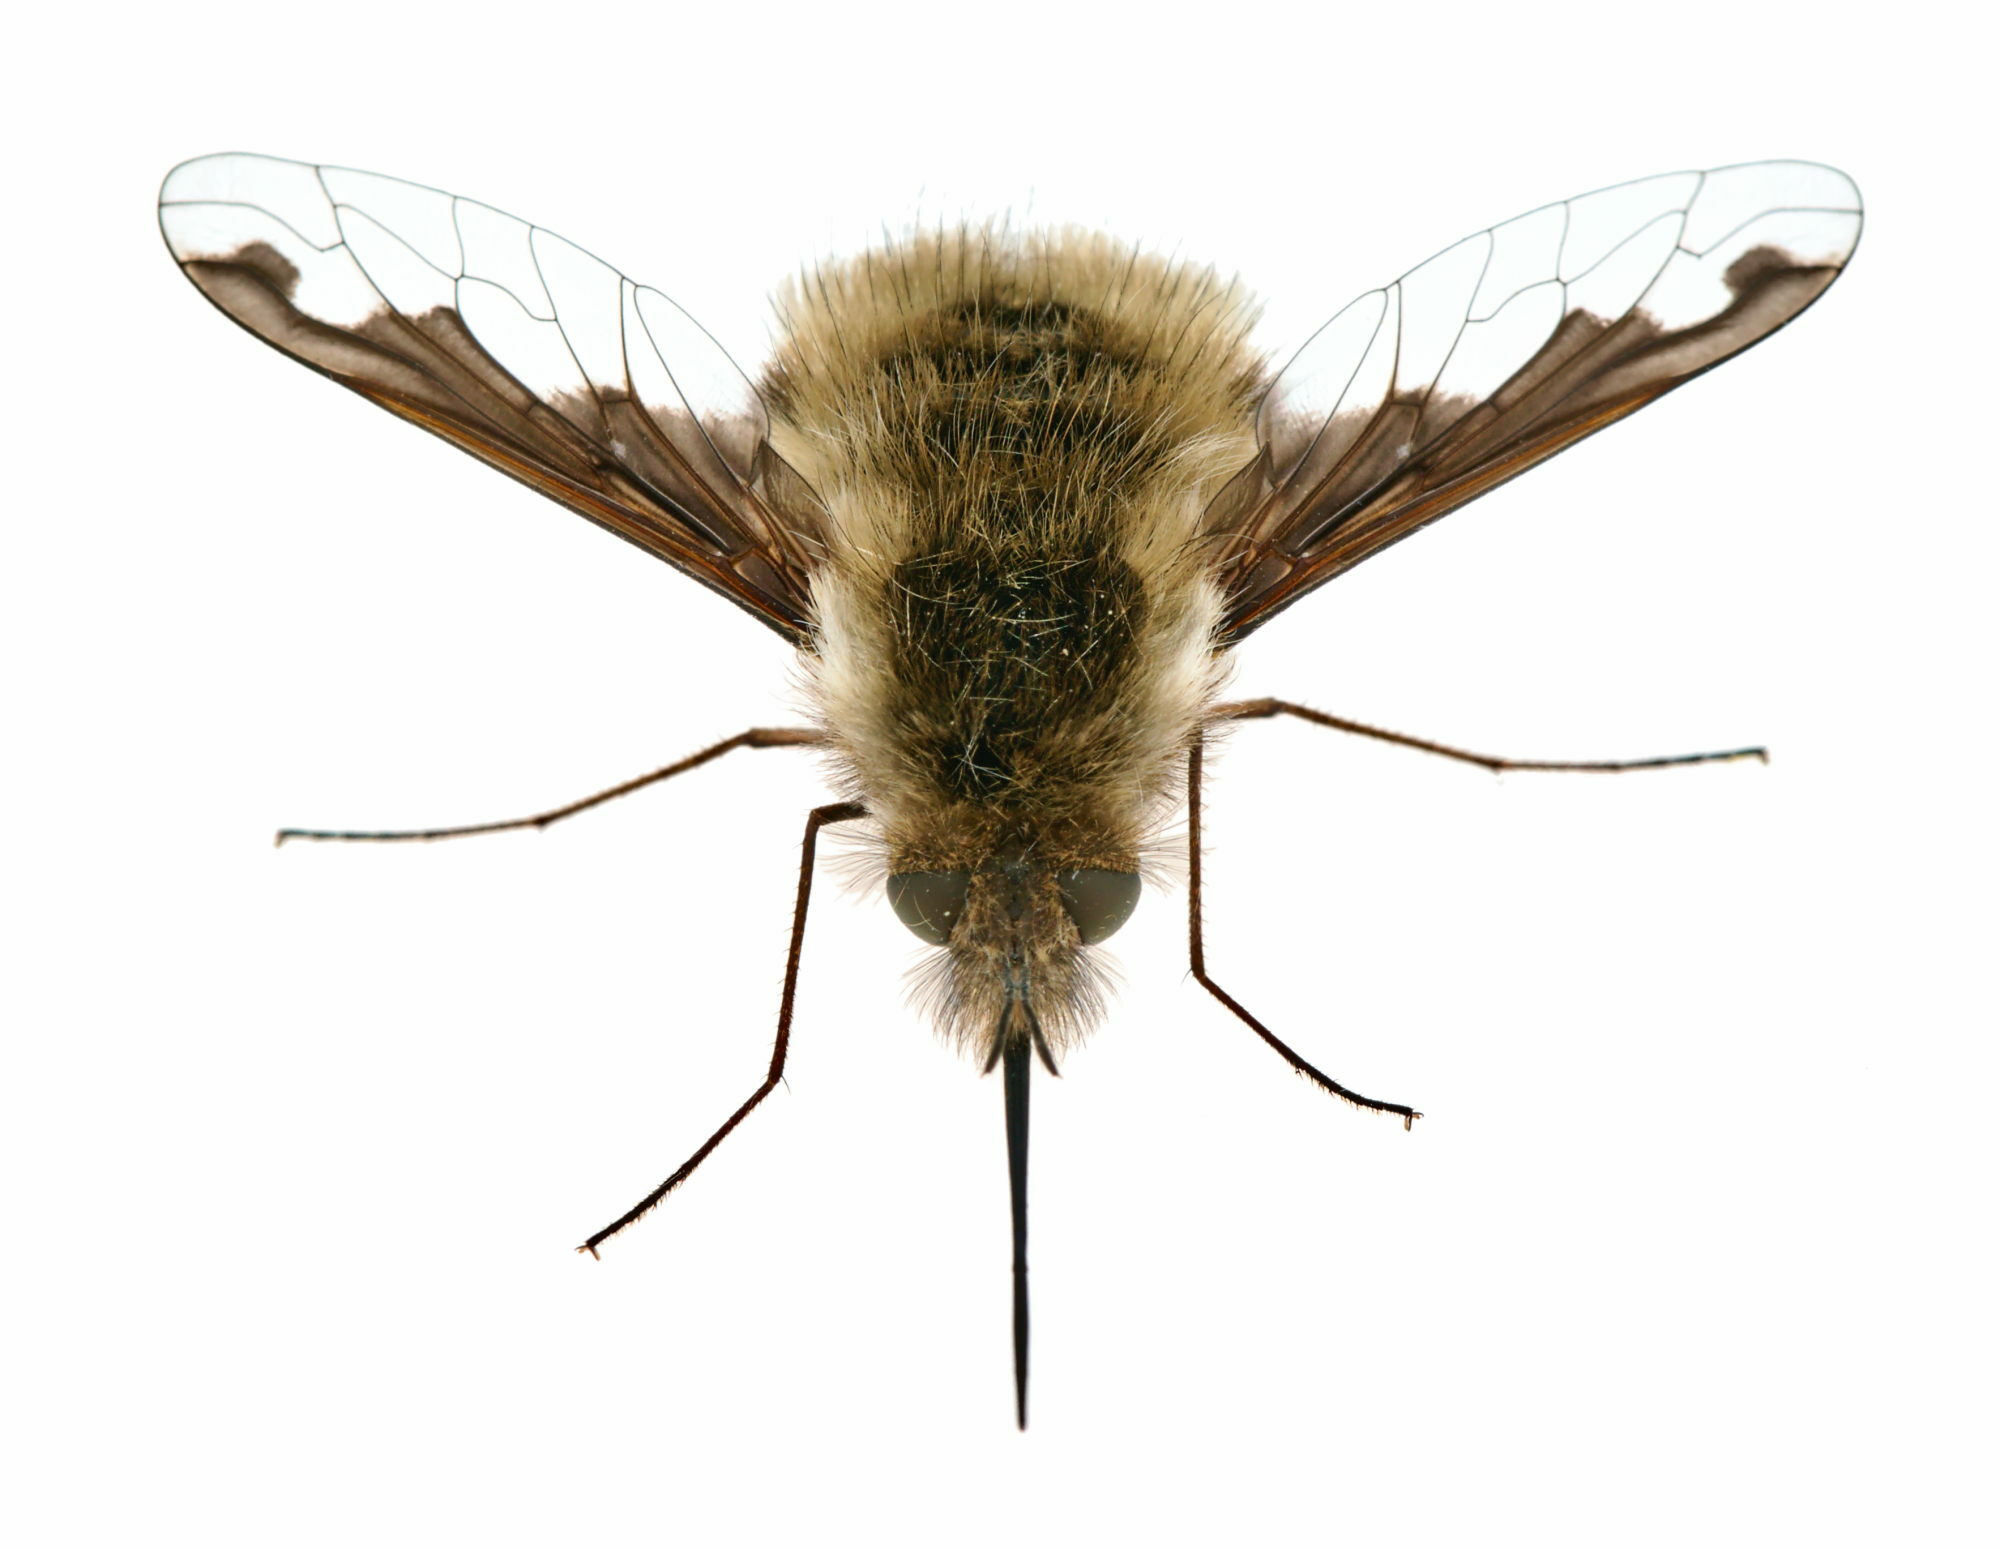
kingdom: Animalia
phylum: Arthropoda
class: Insecta
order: Diptera
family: Bombyliidae
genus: Bombylius
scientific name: Bombylius major
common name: Bee fly
